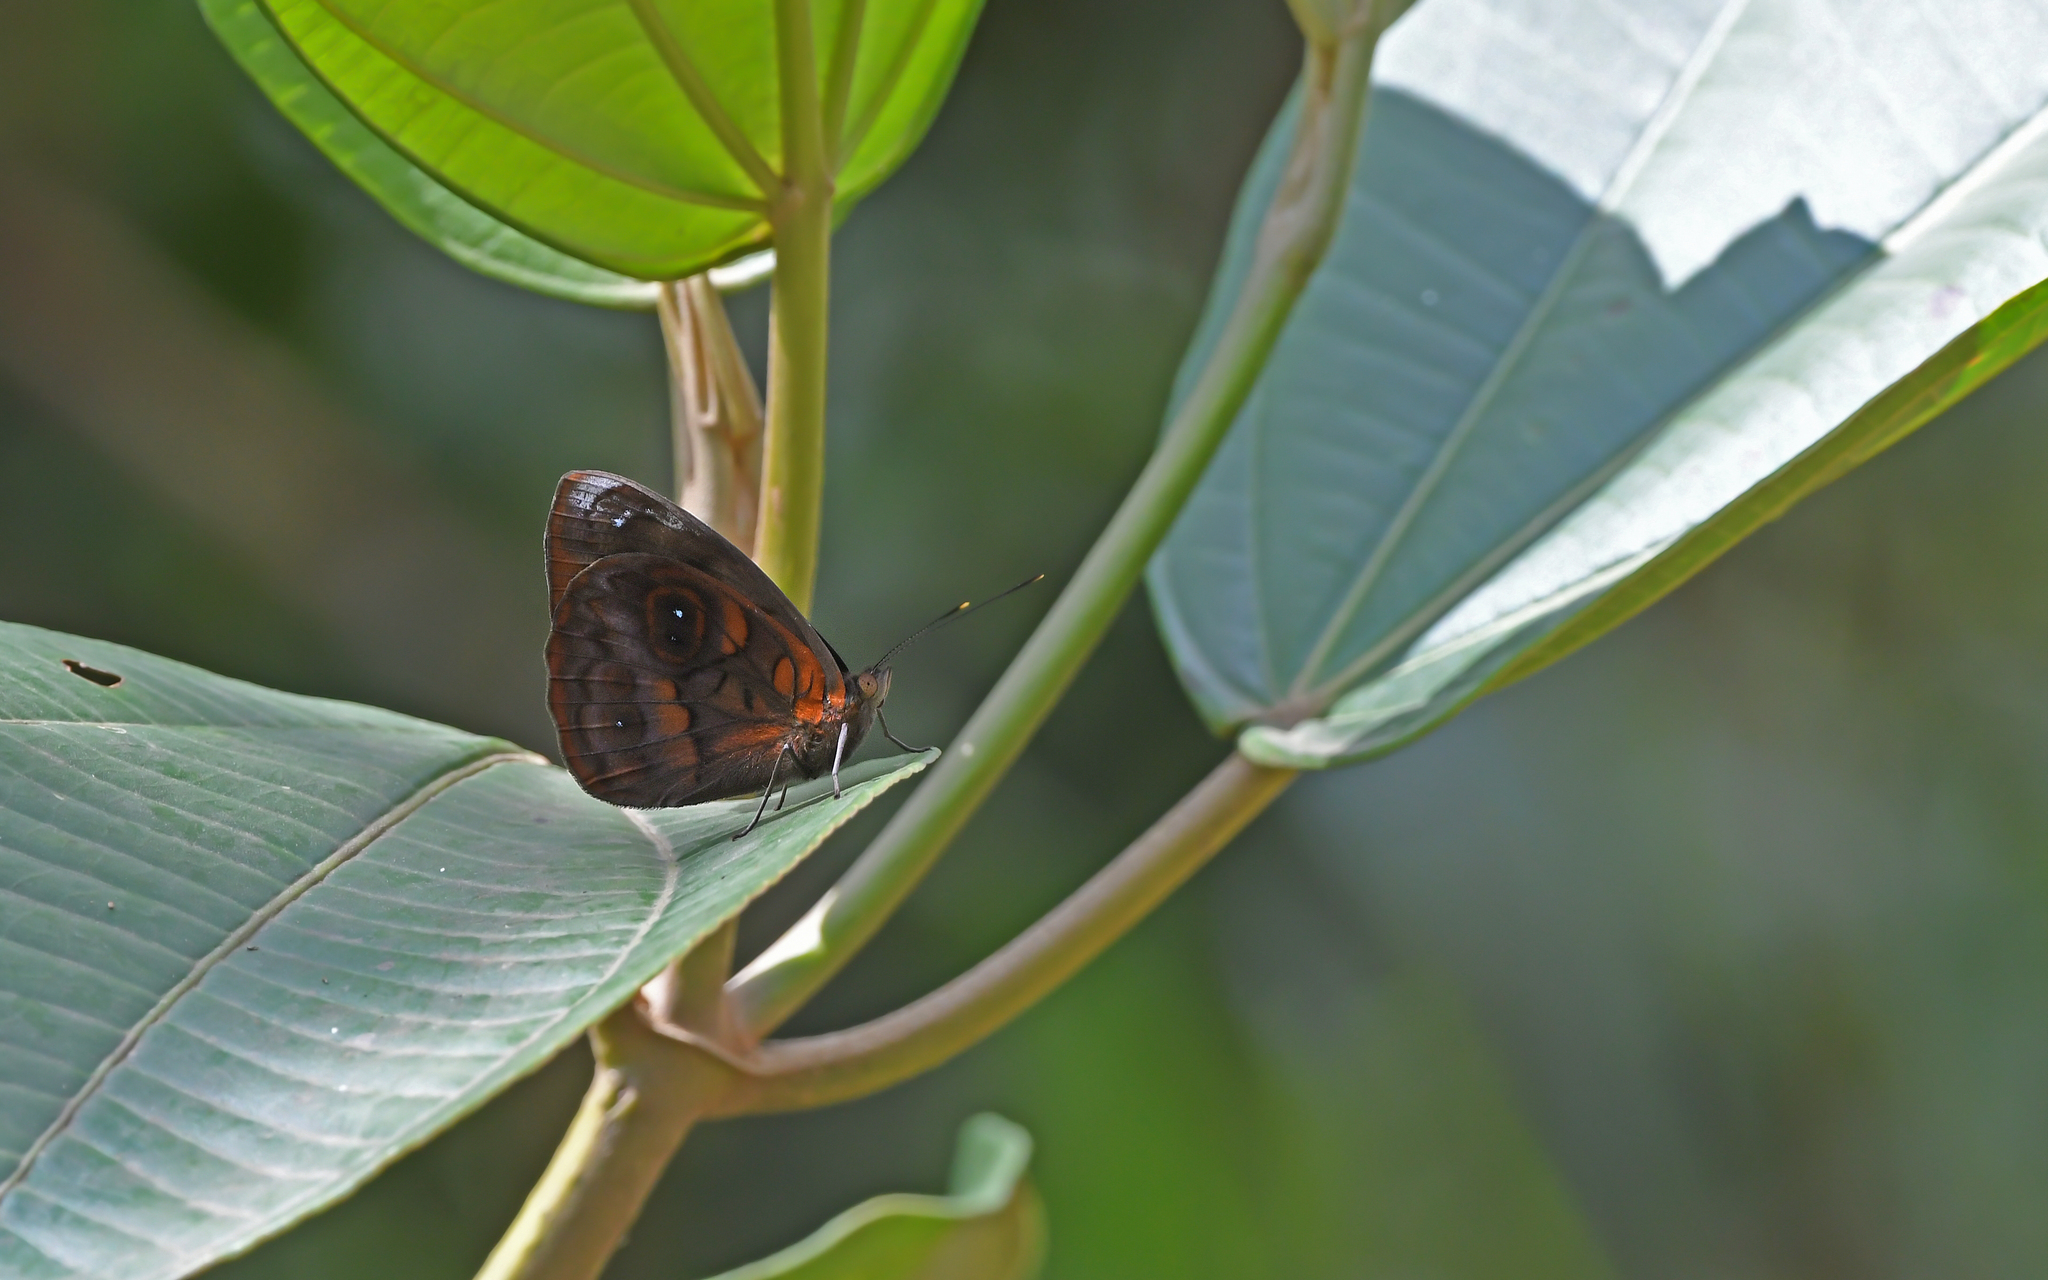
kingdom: Animalia
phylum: Arthropoda
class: Insecta
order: Lepidoptera
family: Nymphalidae
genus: Eunica
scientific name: Eunica cabira
